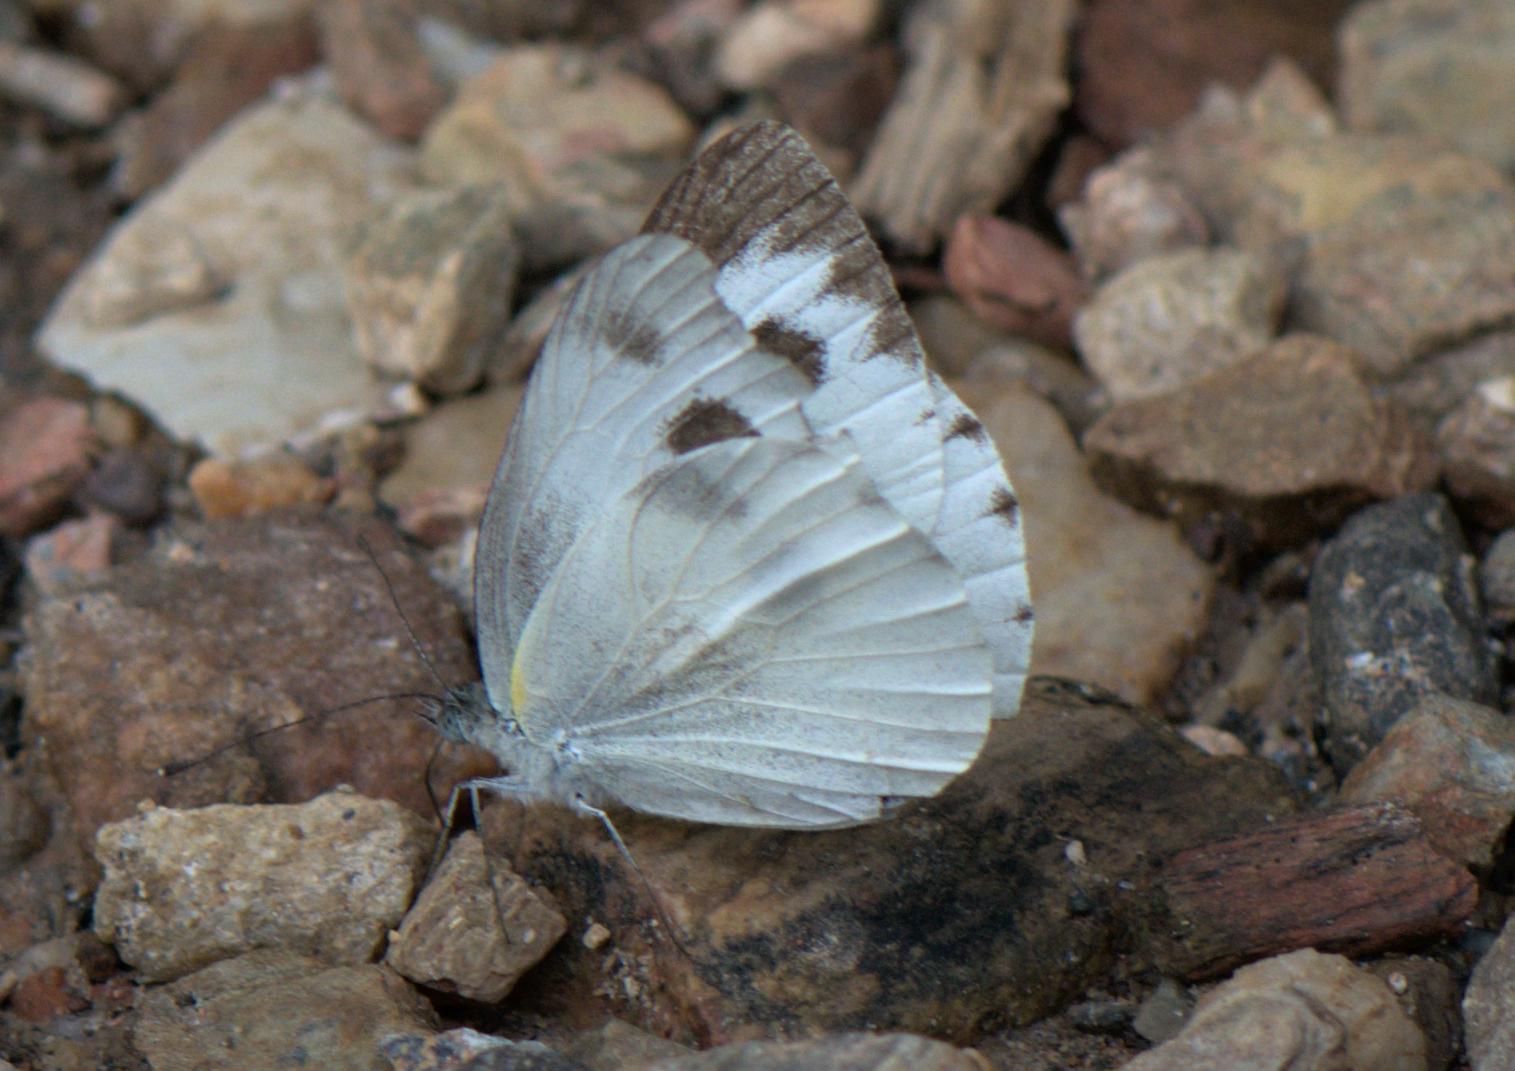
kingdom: Animalia
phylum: Arthropoda
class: Insecta
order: Lepidoptera
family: Pieridae
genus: Pieris
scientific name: Pieris canidia
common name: Indian cabbage white
